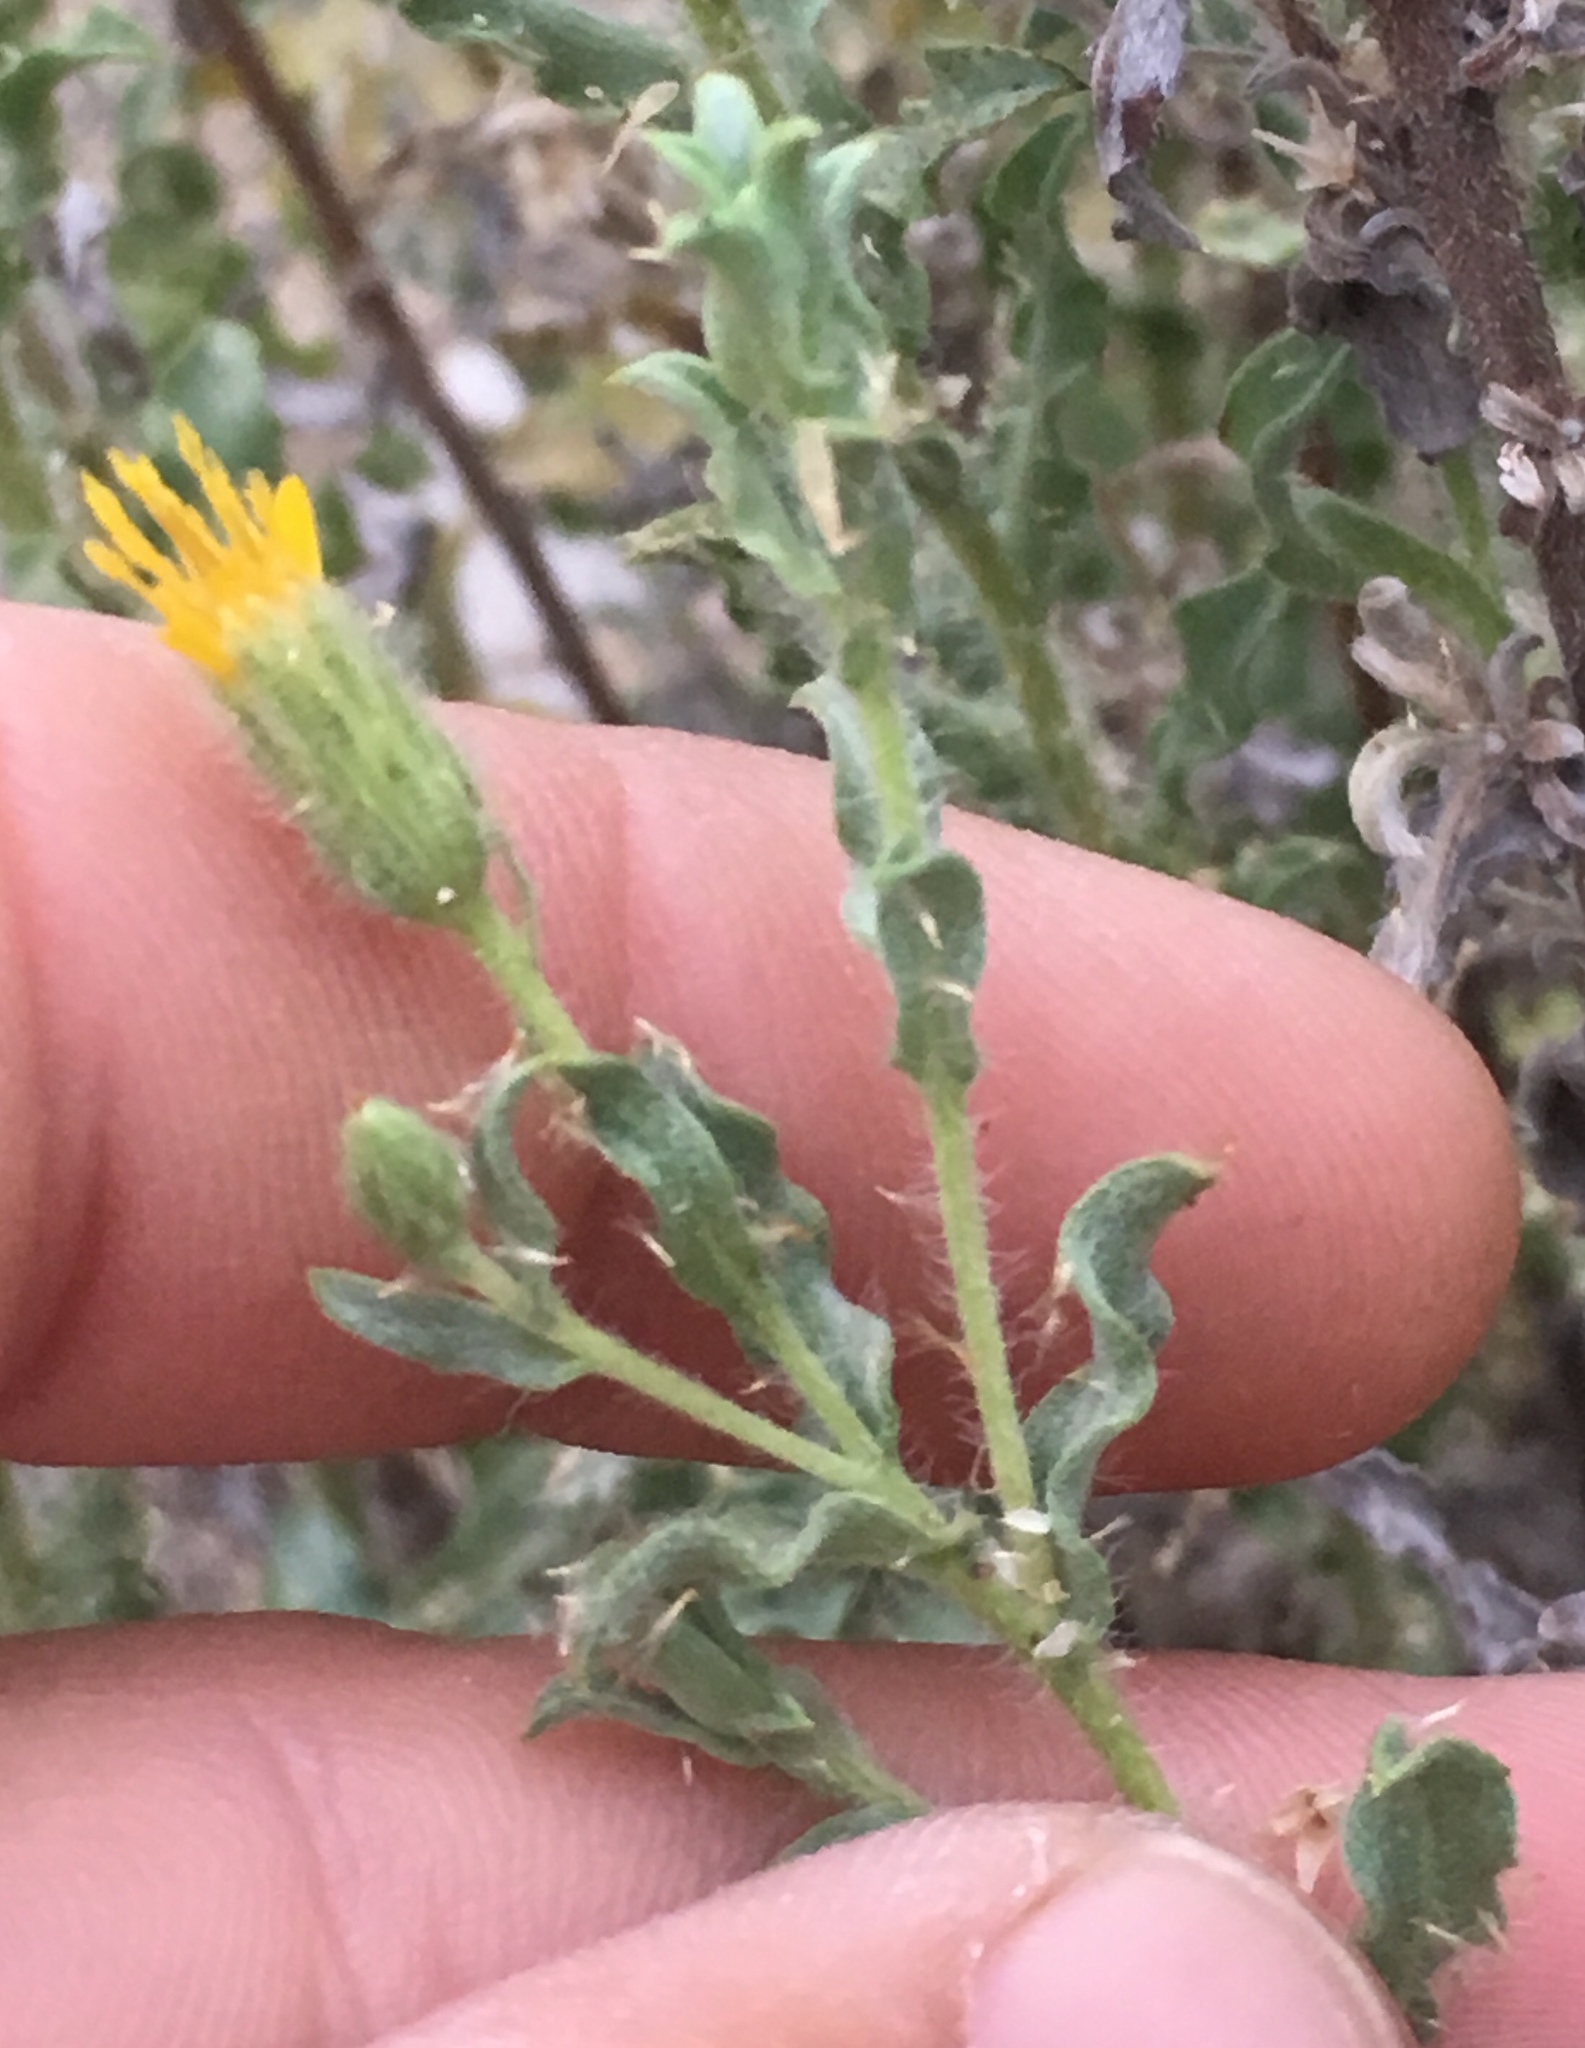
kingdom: Plantae
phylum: Tracheophyta
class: Magnoliopsida
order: Asterales
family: Asteraceae
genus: Heterotheca
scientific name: Heterotheca sessiliflora
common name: Sessile-flower golden-aster
